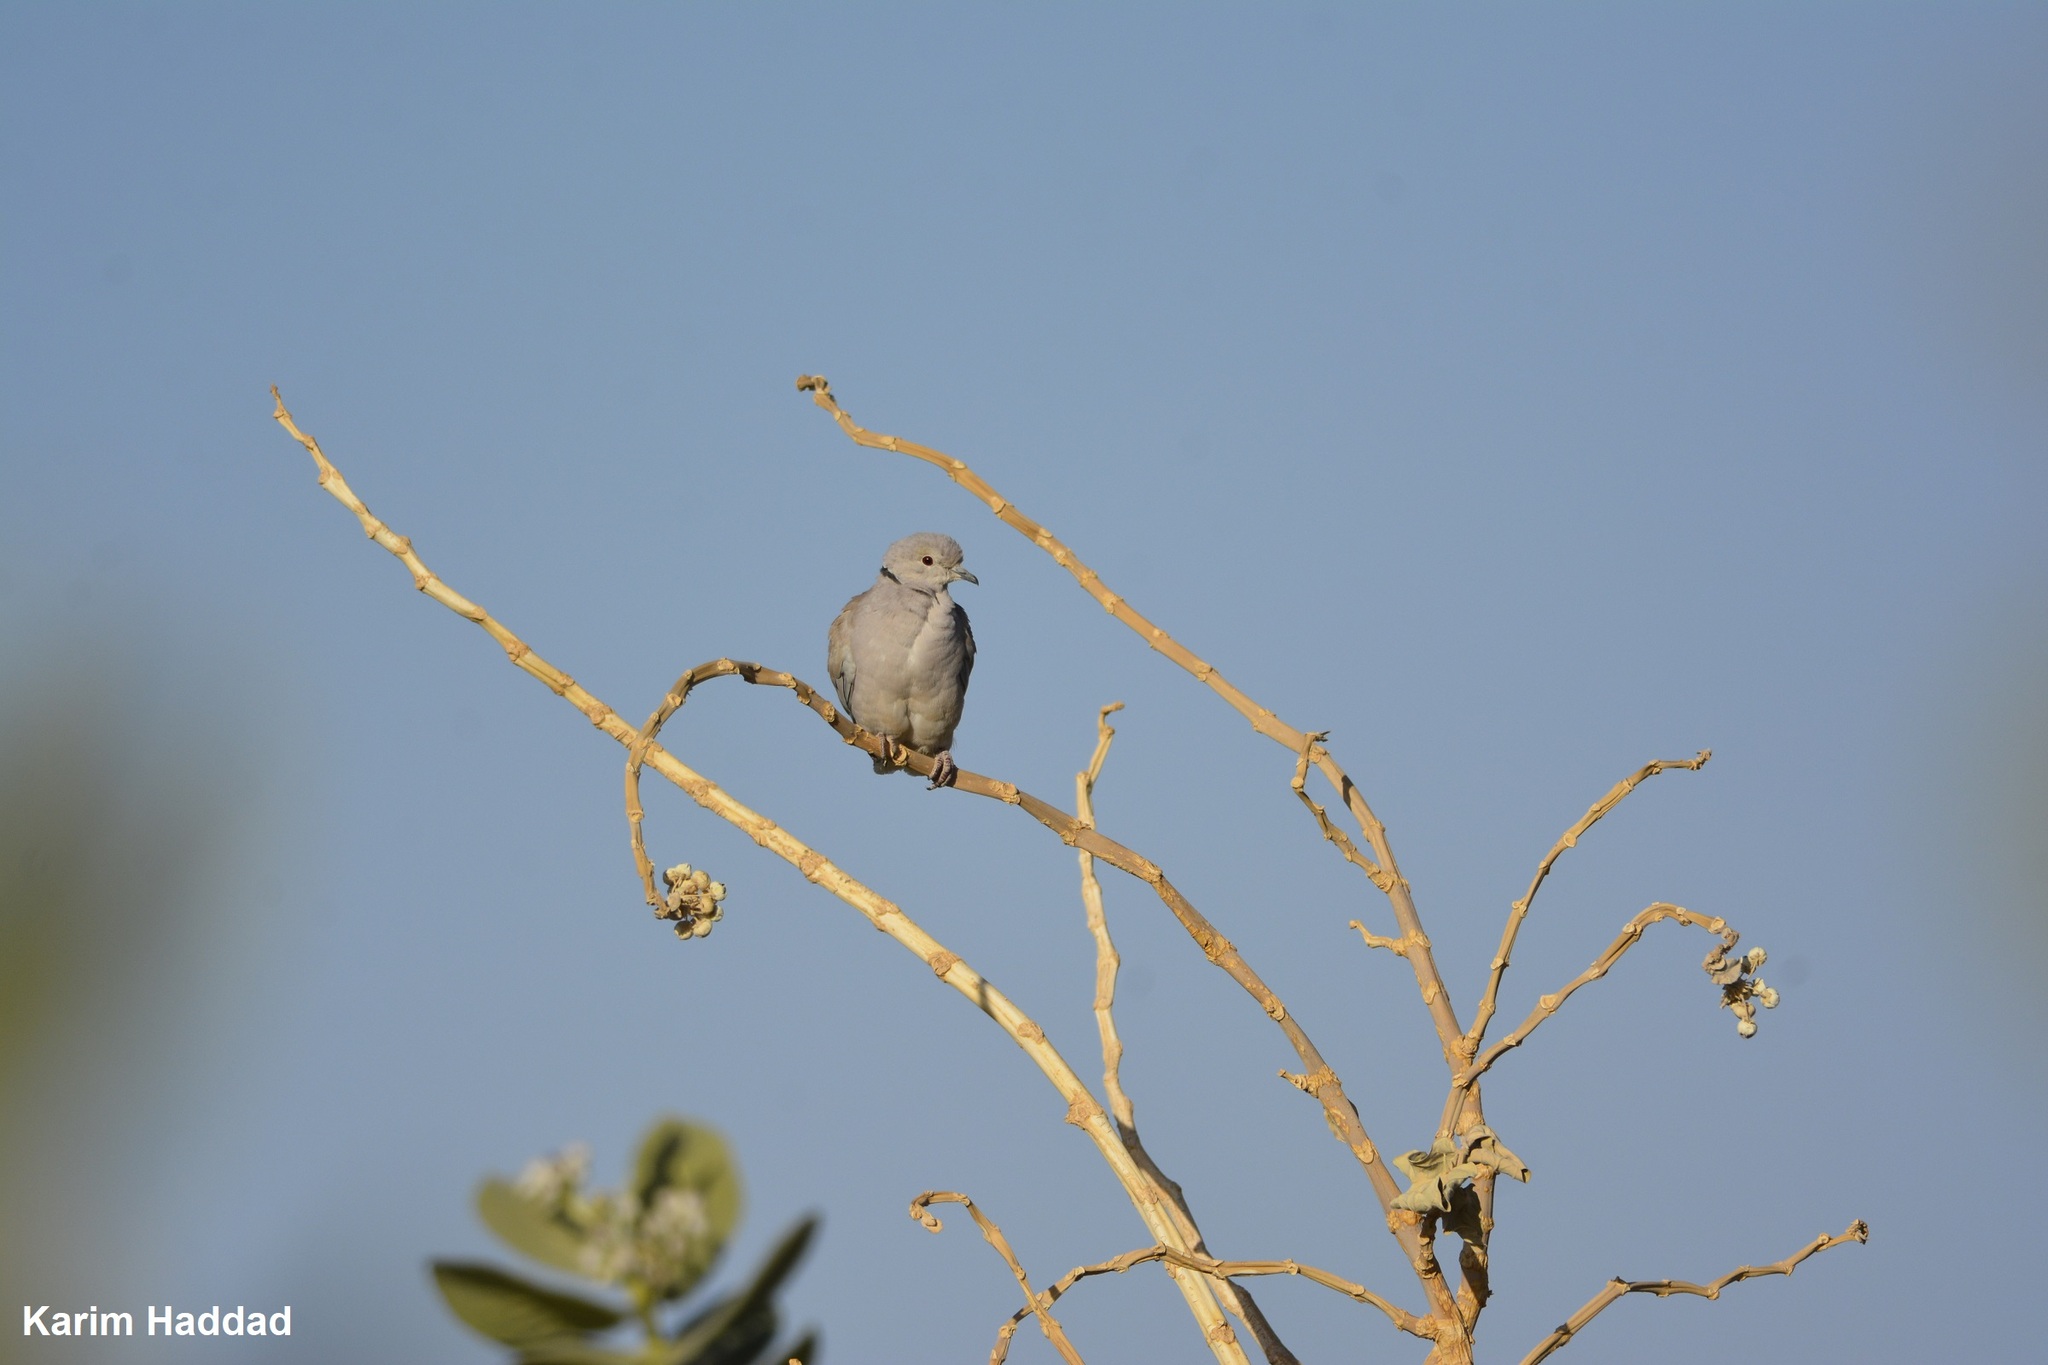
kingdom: Animalia
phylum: Chordata
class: Aves
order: Columbiformes
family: Columbidae
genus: Streptopelia
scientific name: Streptopelia roseogrisea
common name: African collared dove
